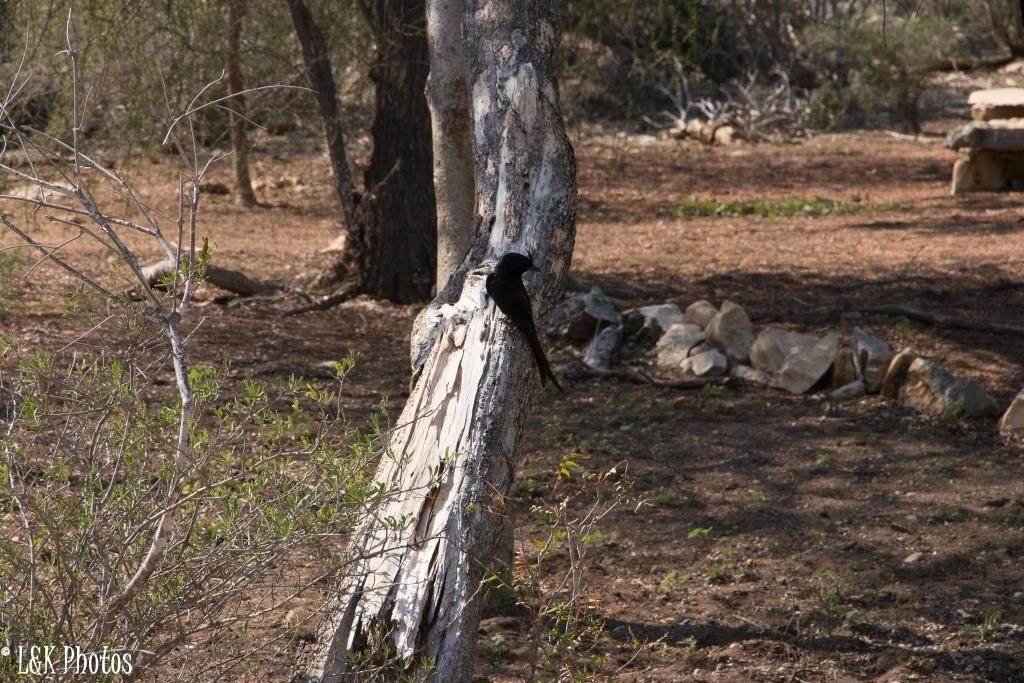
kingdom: Animalia
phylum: Chordata
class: Aves
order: Passeriformes
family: Dicruridae
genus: Dicrurus
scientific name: Dicrurus forficatus
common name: Crested drongo
